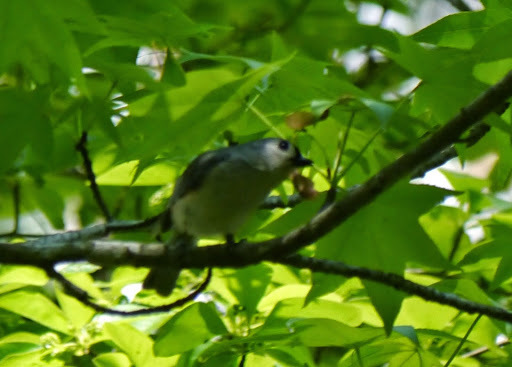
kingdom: Animalia
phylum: Chordata
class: Aves
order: Passeriformes
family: Paridae
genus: Baeolophus
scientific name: Baeolophus bicolor
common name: Tufted titmouse
